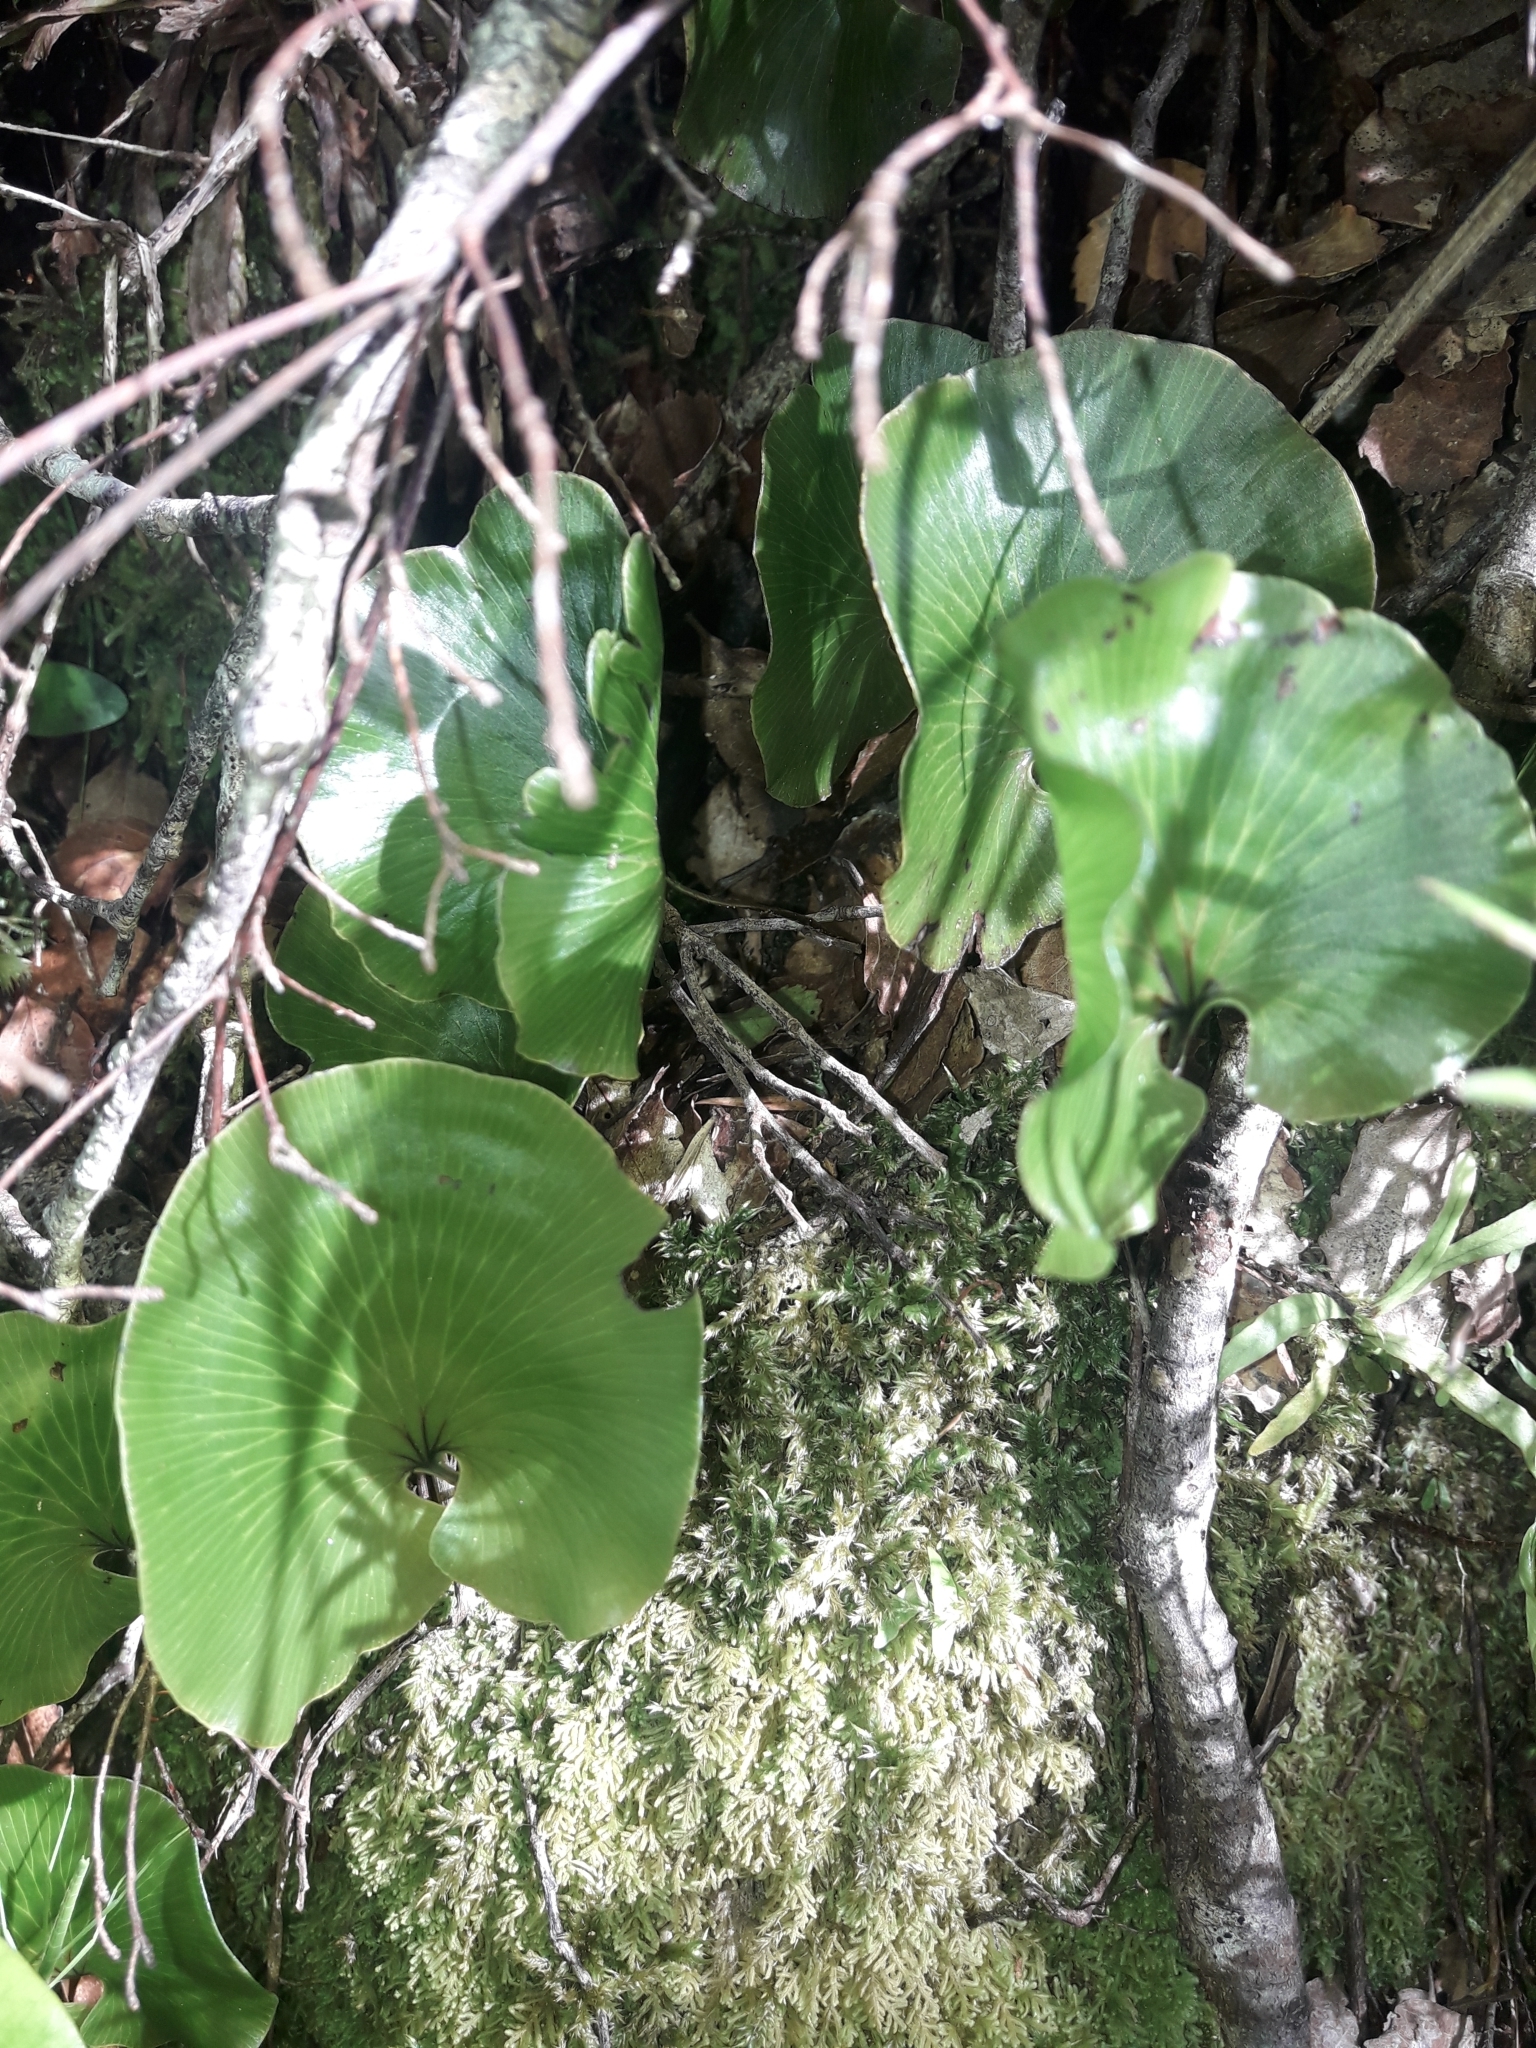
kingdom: Plantae
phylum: Tracheophyta
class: Polypodiopsida
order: Hymenophyllales
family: Hymenophyllaceae
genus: Hymenophyllum
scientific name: Hymenophyllum nephrophyllum
